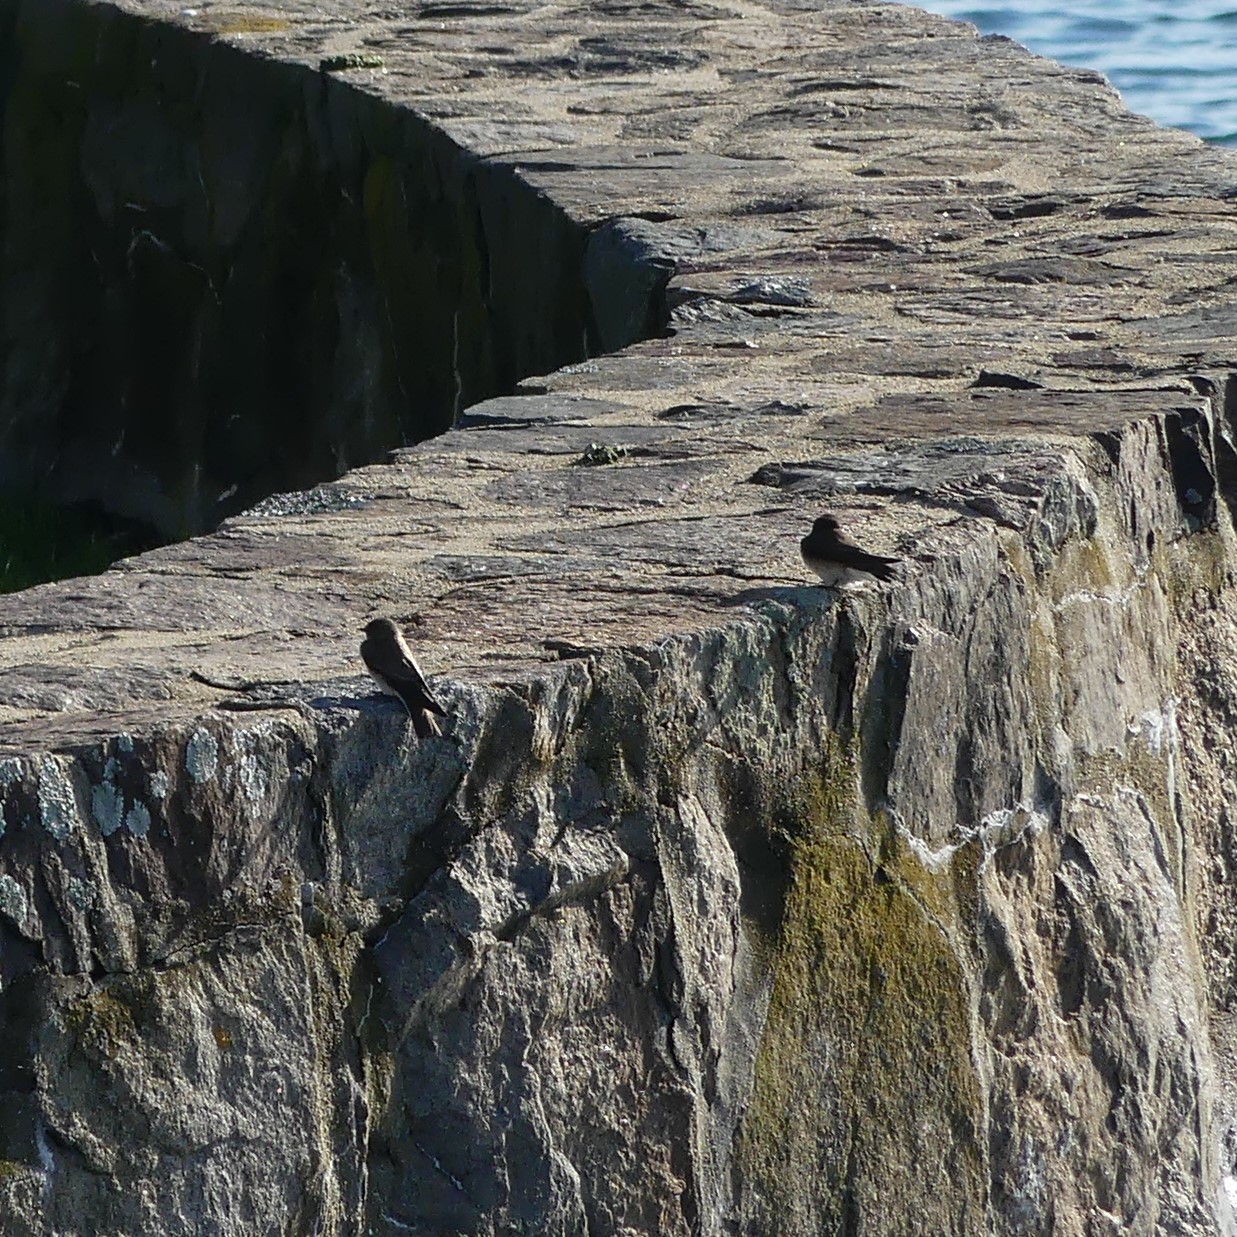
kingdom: Animalia
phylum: Chordata
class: Aves
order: Passeriformes
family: Hirundinidae
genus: Stelgidopteryx
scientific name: Stelgidopteryx serripennis
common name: Northern rough-winged swallow
